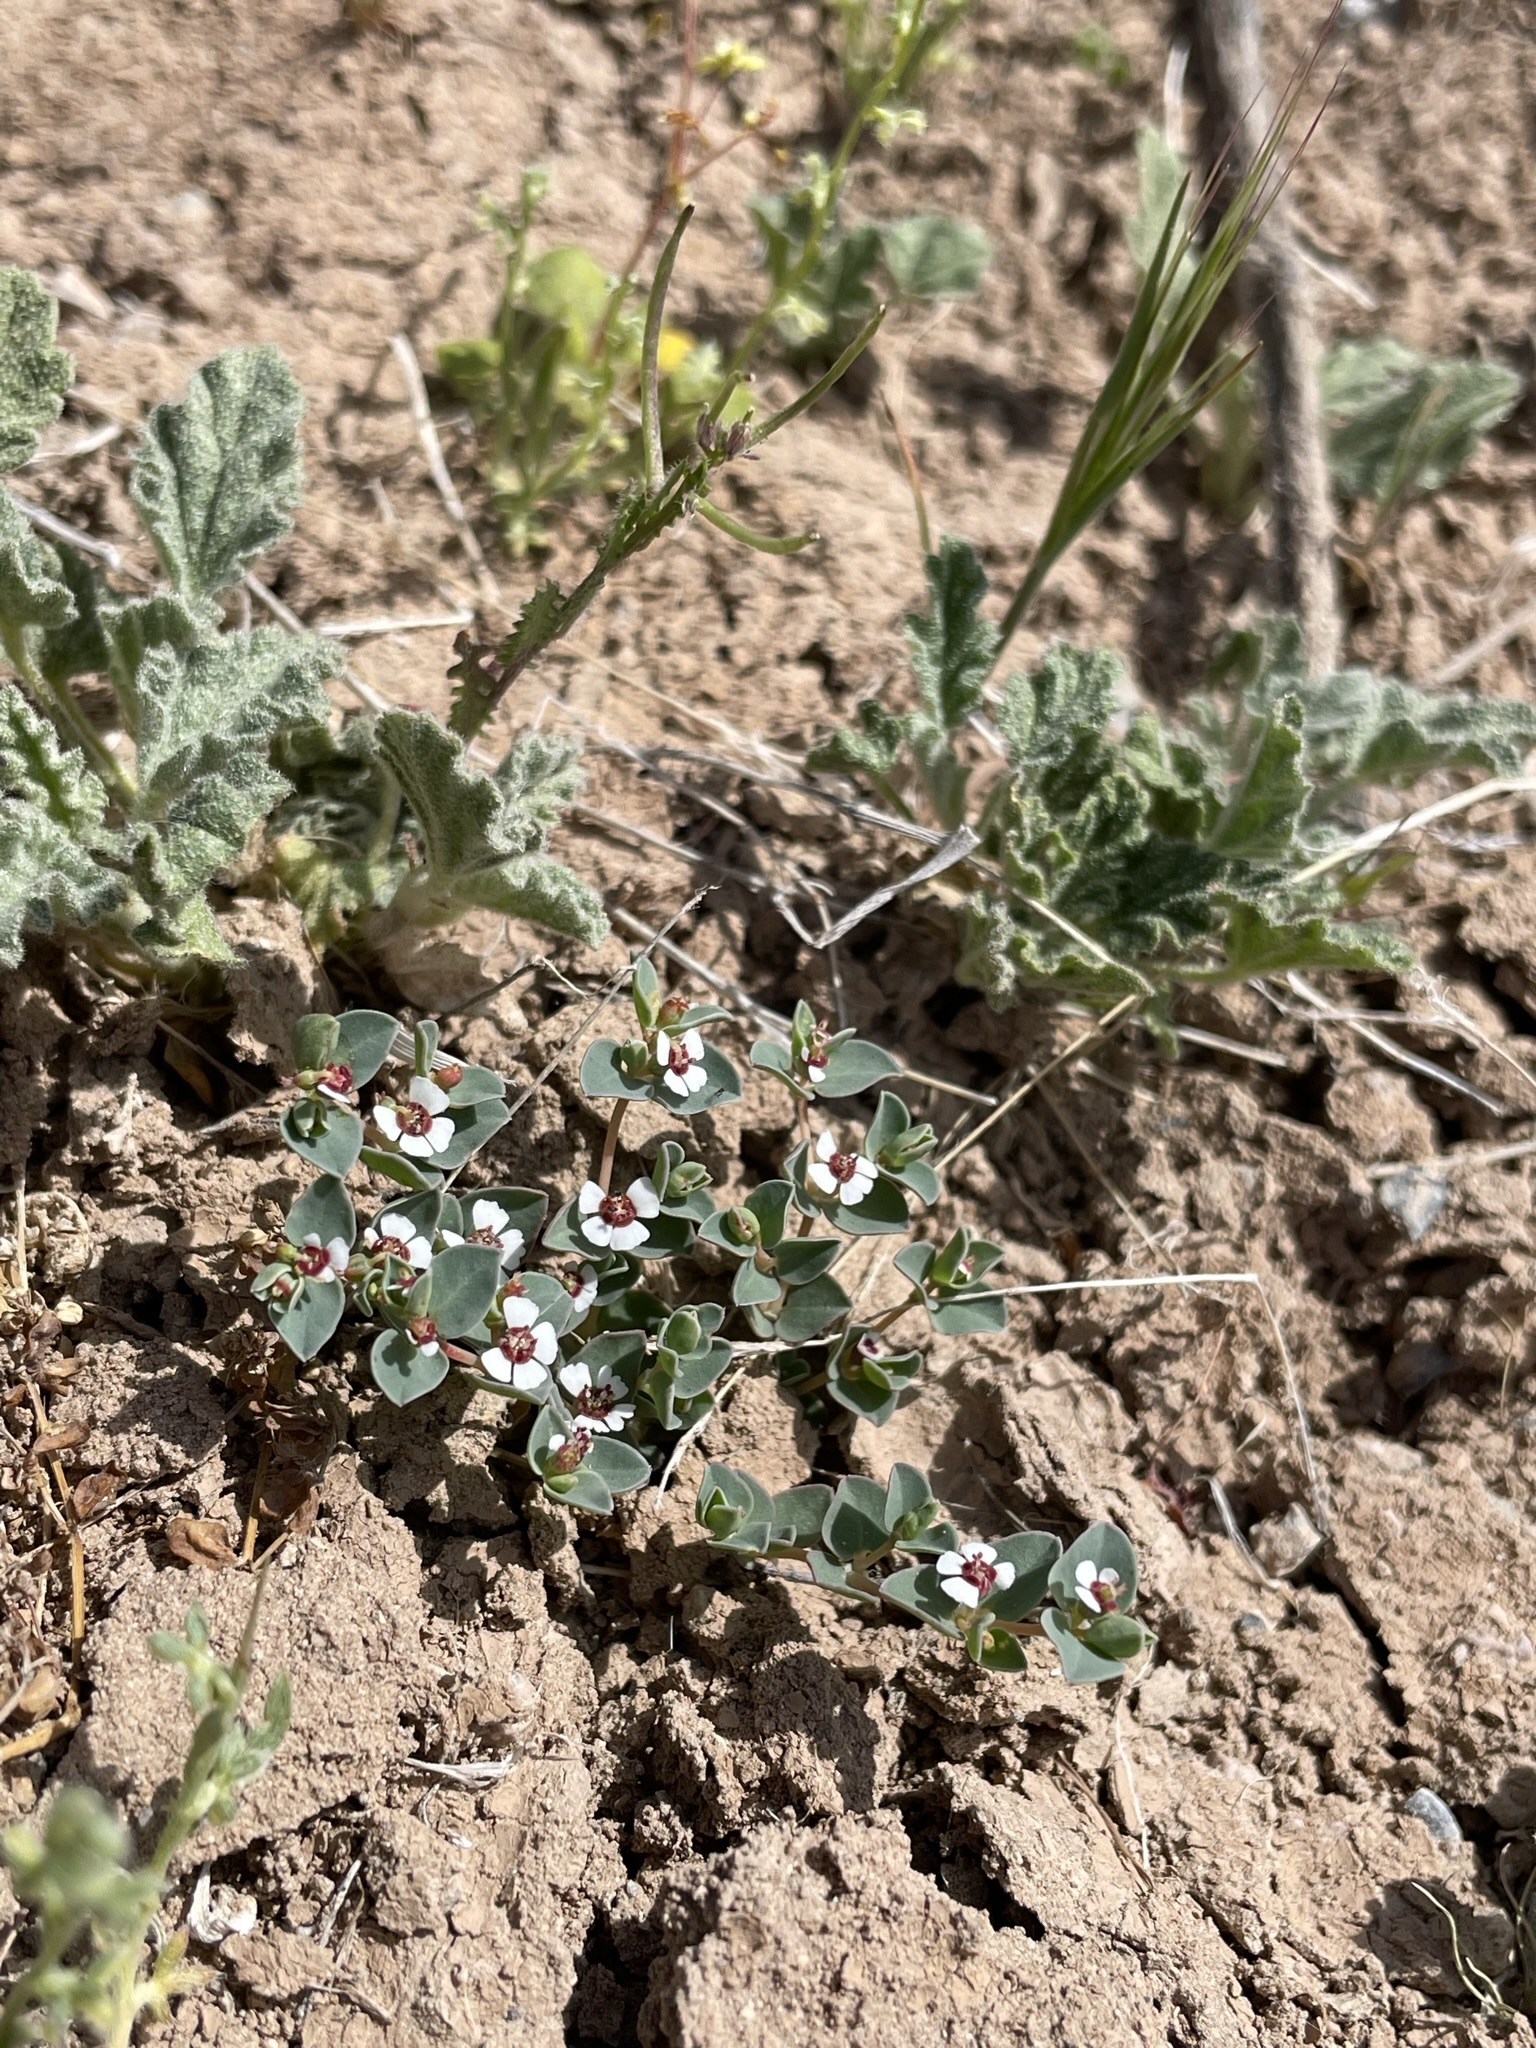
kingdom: Plantae
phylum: Tracheophyta
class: Magnoliopsida
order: Malpighiales
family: Euphorbiaceae
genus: Euphorbia
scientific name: Euphorbia albomarginata
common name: Whitemargin sandmat
